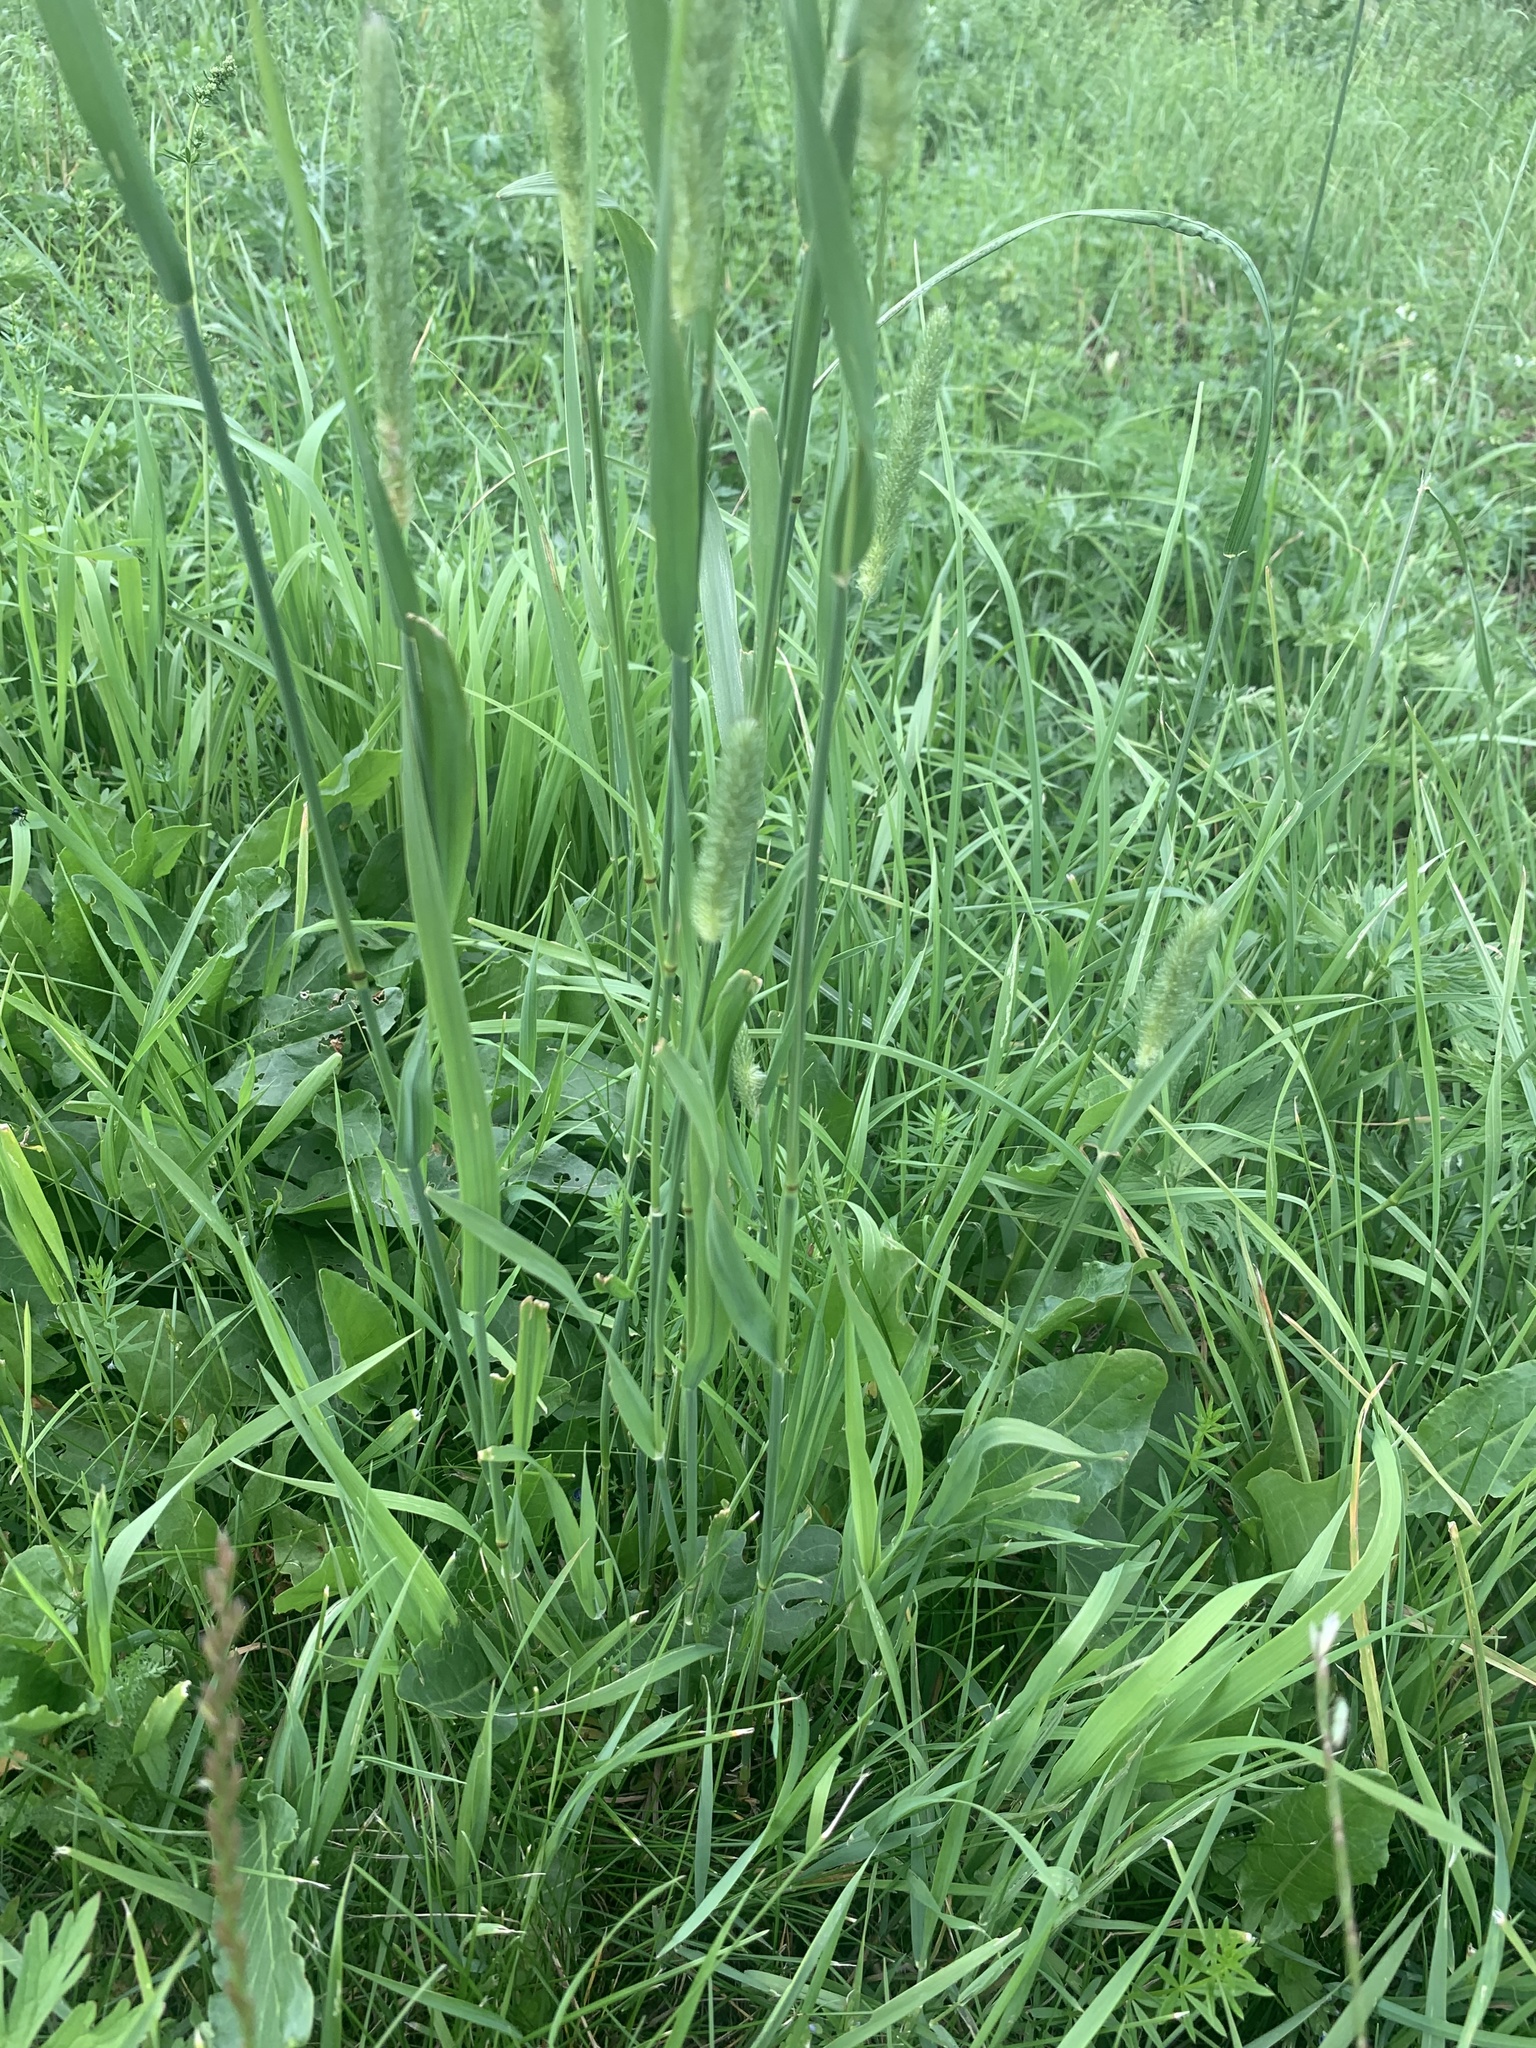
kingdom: Plantae
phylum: Tracheophyta
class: Liliopsida
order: Poales
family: Poaceae
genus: Phleum
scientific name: Phleum pratense
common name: Timothy grass
